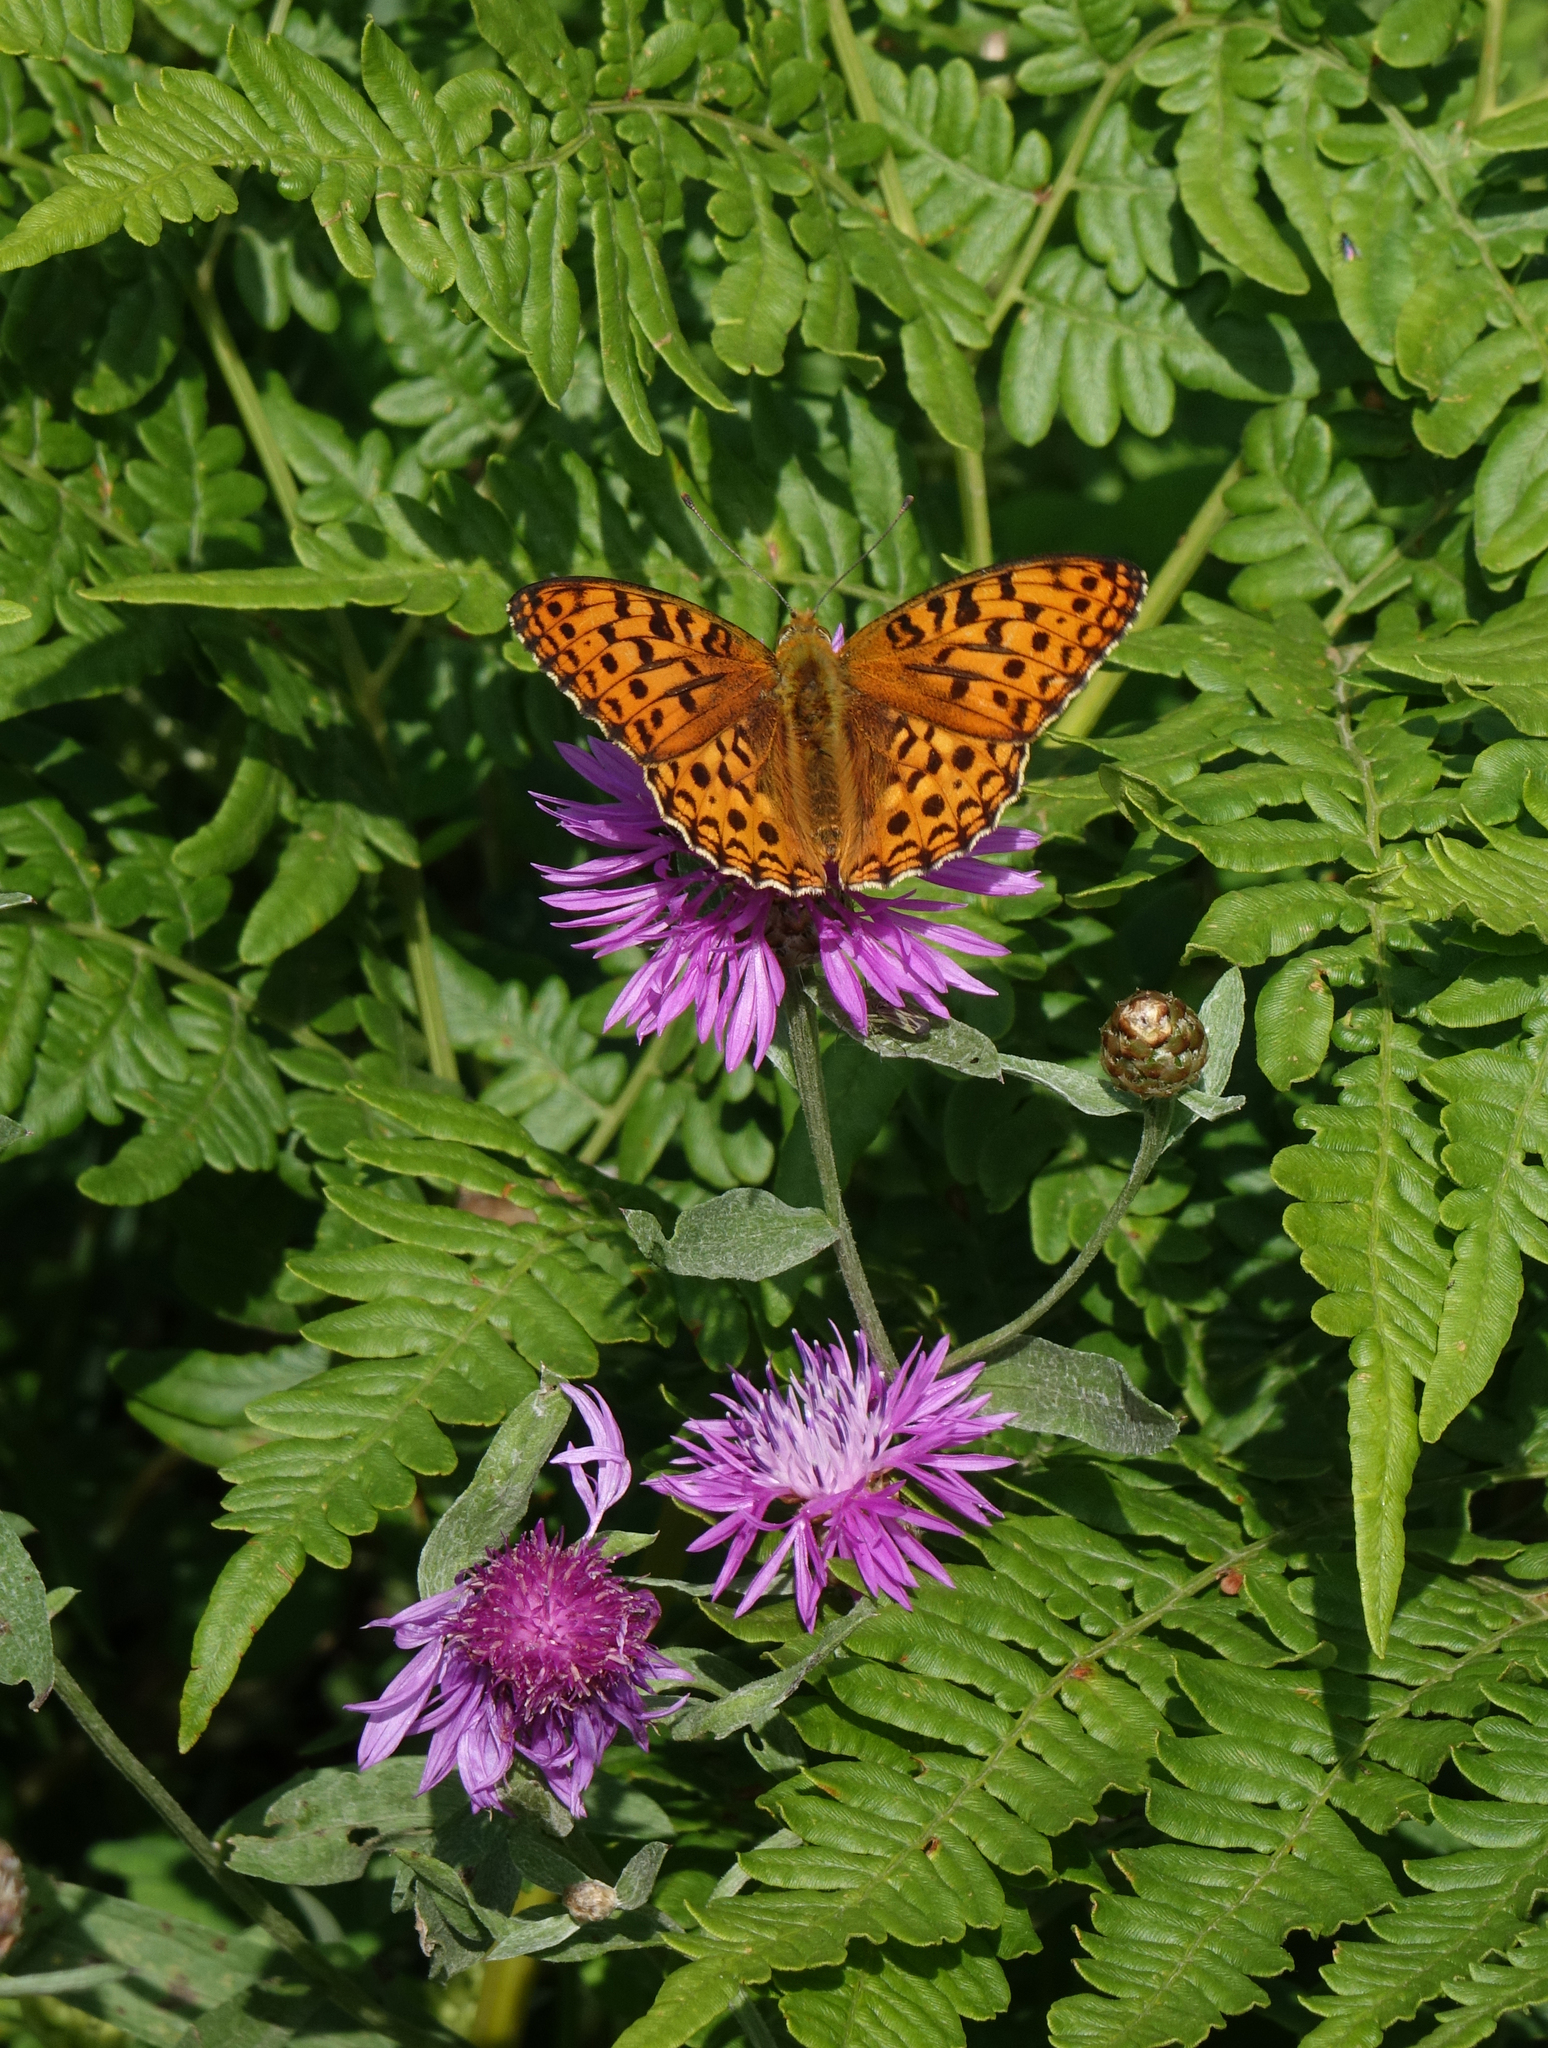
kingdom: Animalia
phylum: Arthropoda
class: Insecta
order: Lepidoptera
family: Nymphalidae
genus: Fabriciana
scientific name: Fabriciana adippe
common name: High brown fritillary
